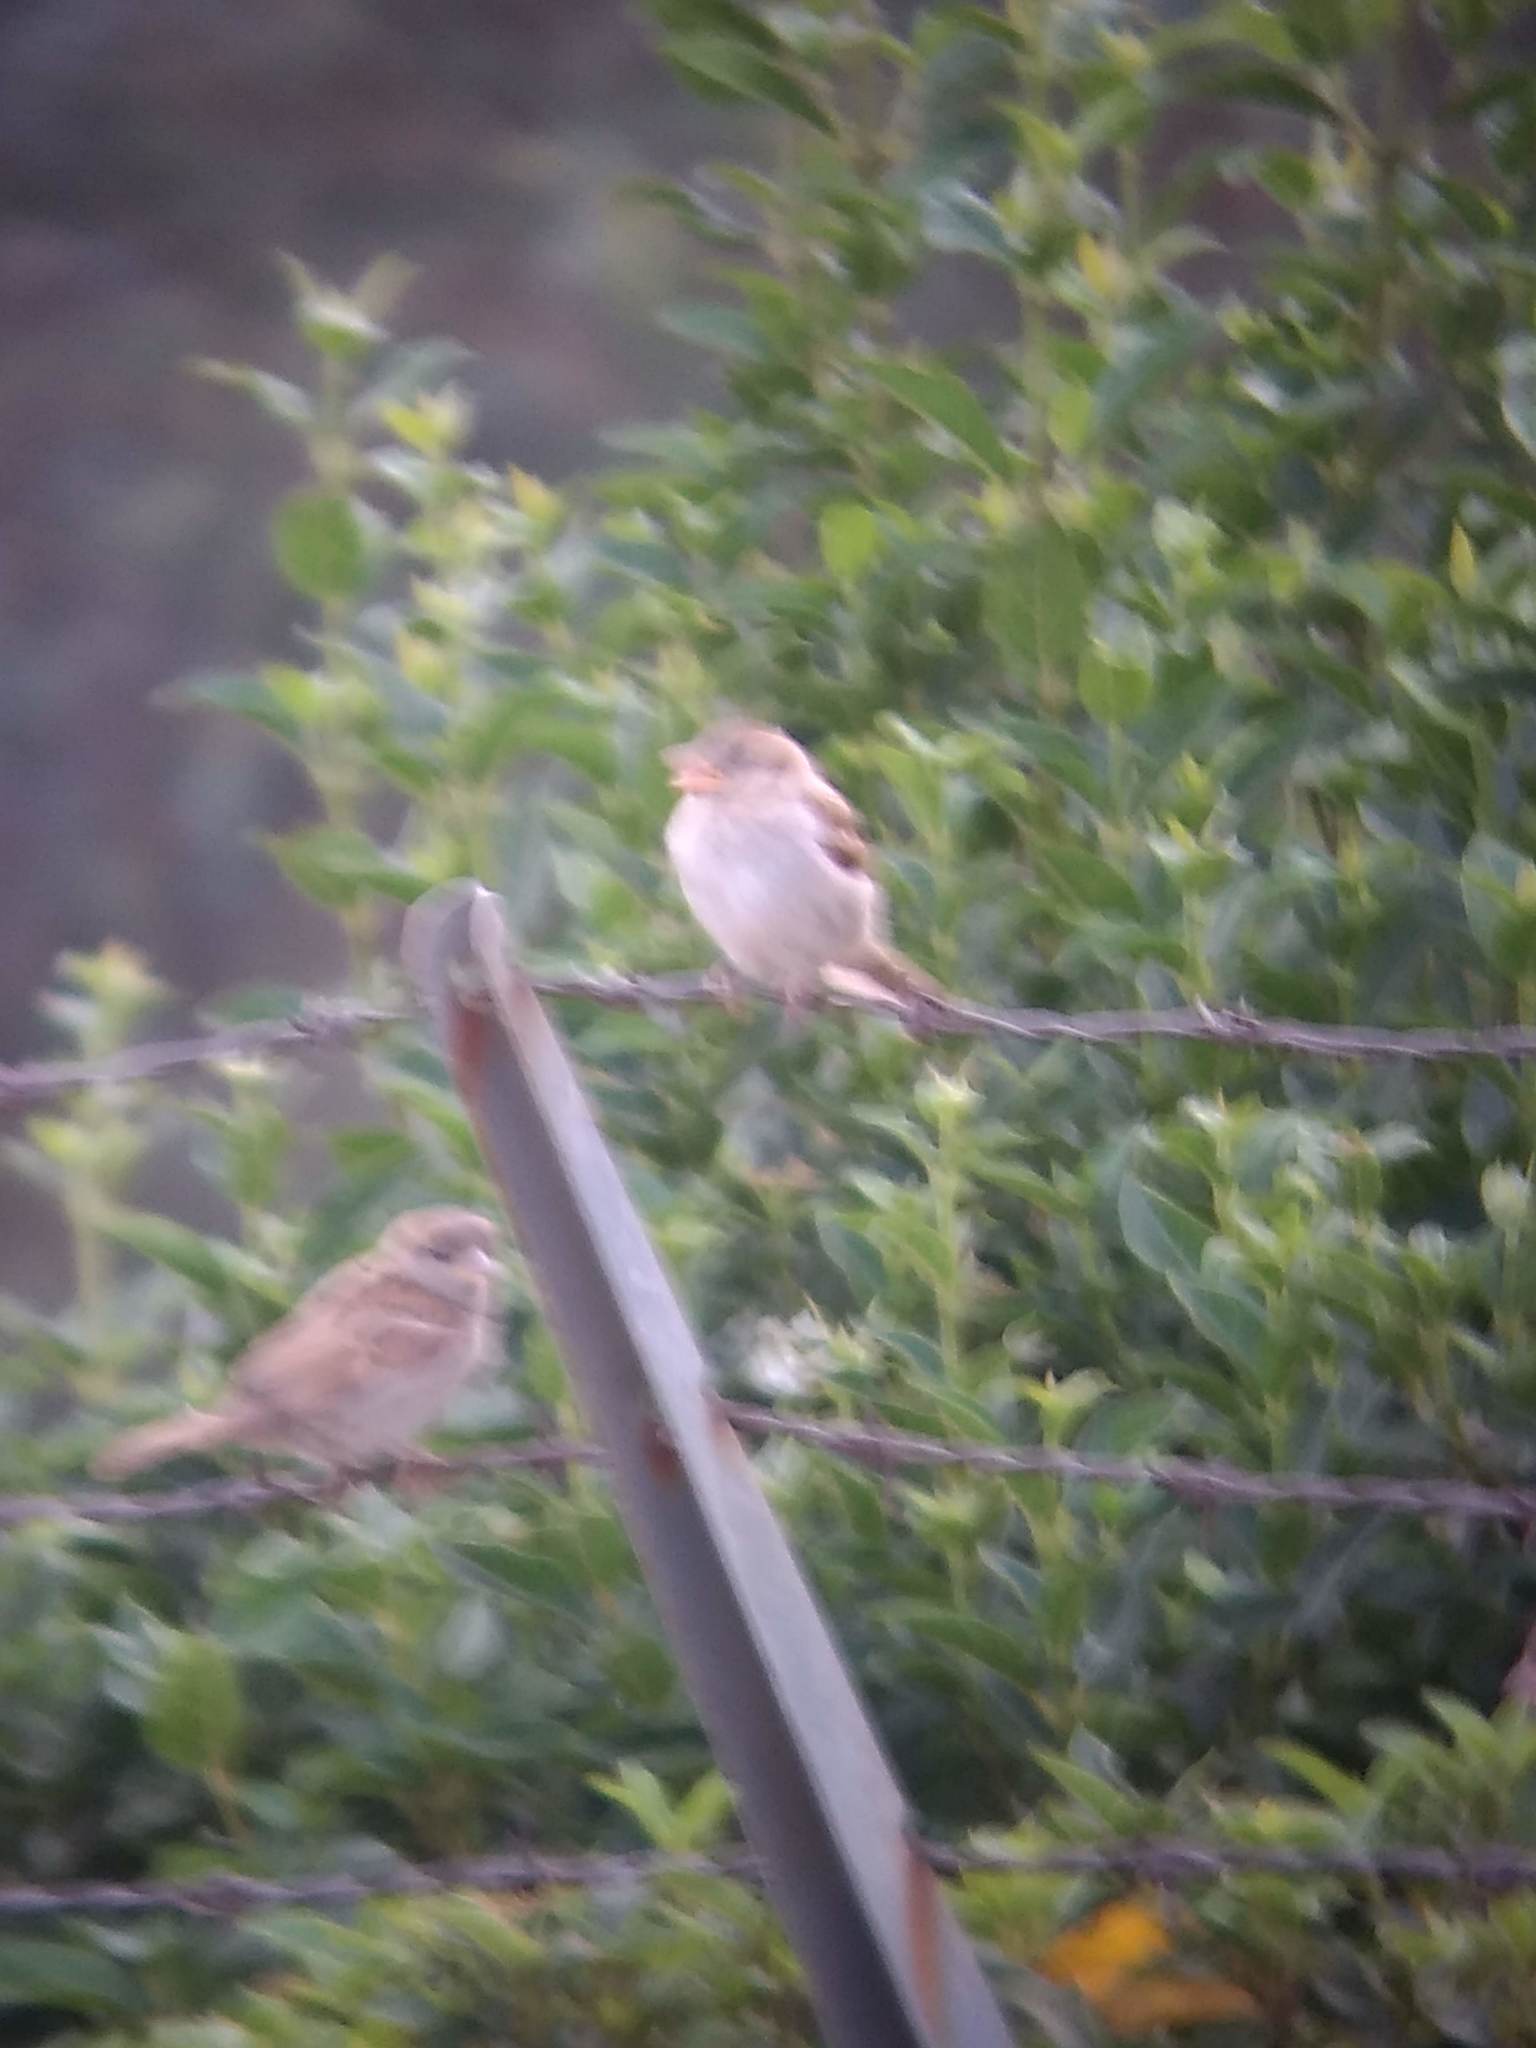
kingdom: Animalia
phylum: Chordata
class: Aves
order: Passeriformes
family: Passeridae
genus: Passer
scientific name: Passer domesticus
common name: House sparrow
